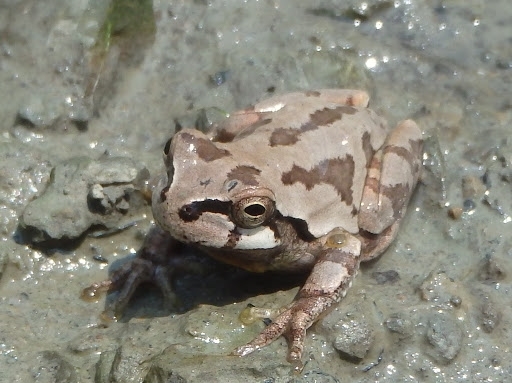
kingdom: Animalia
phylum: Chordata
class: Amphibia
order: Anura
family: Hylidae
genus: Dryophytes
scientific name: Dryophytes japonicus
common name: Japanese treefrog
